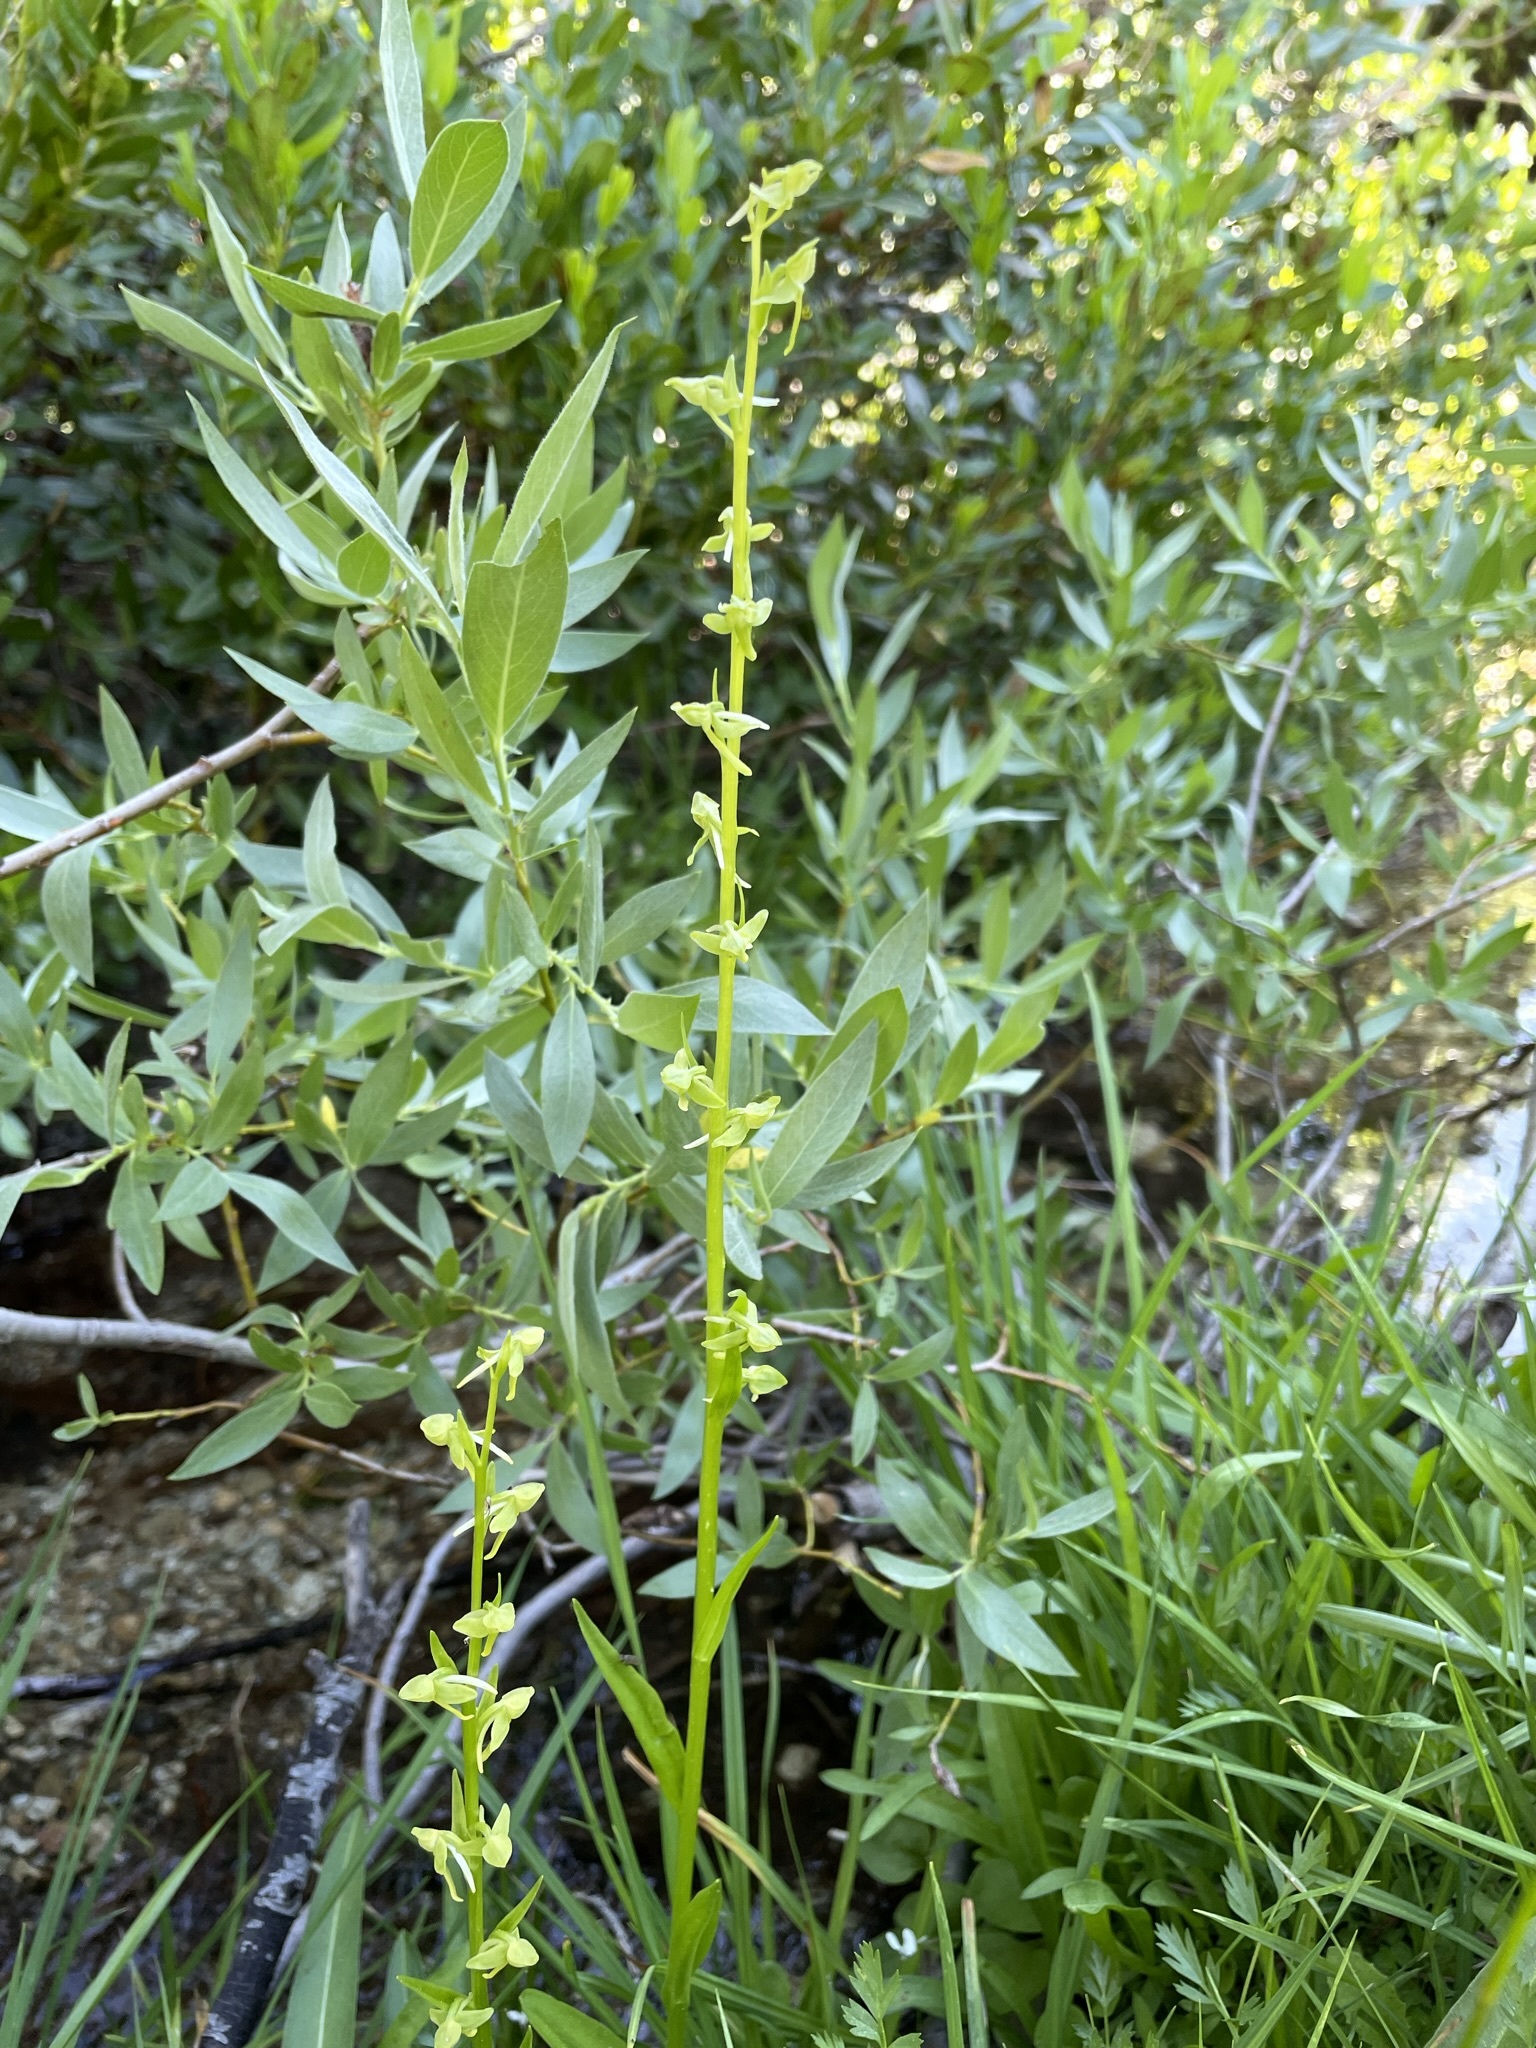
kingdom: Plantae
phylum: Tracheophyta
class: Liliopsida
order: Asparagales
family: Orchidaceae
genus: Platanthera
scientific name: Platanthera sparsiflora
